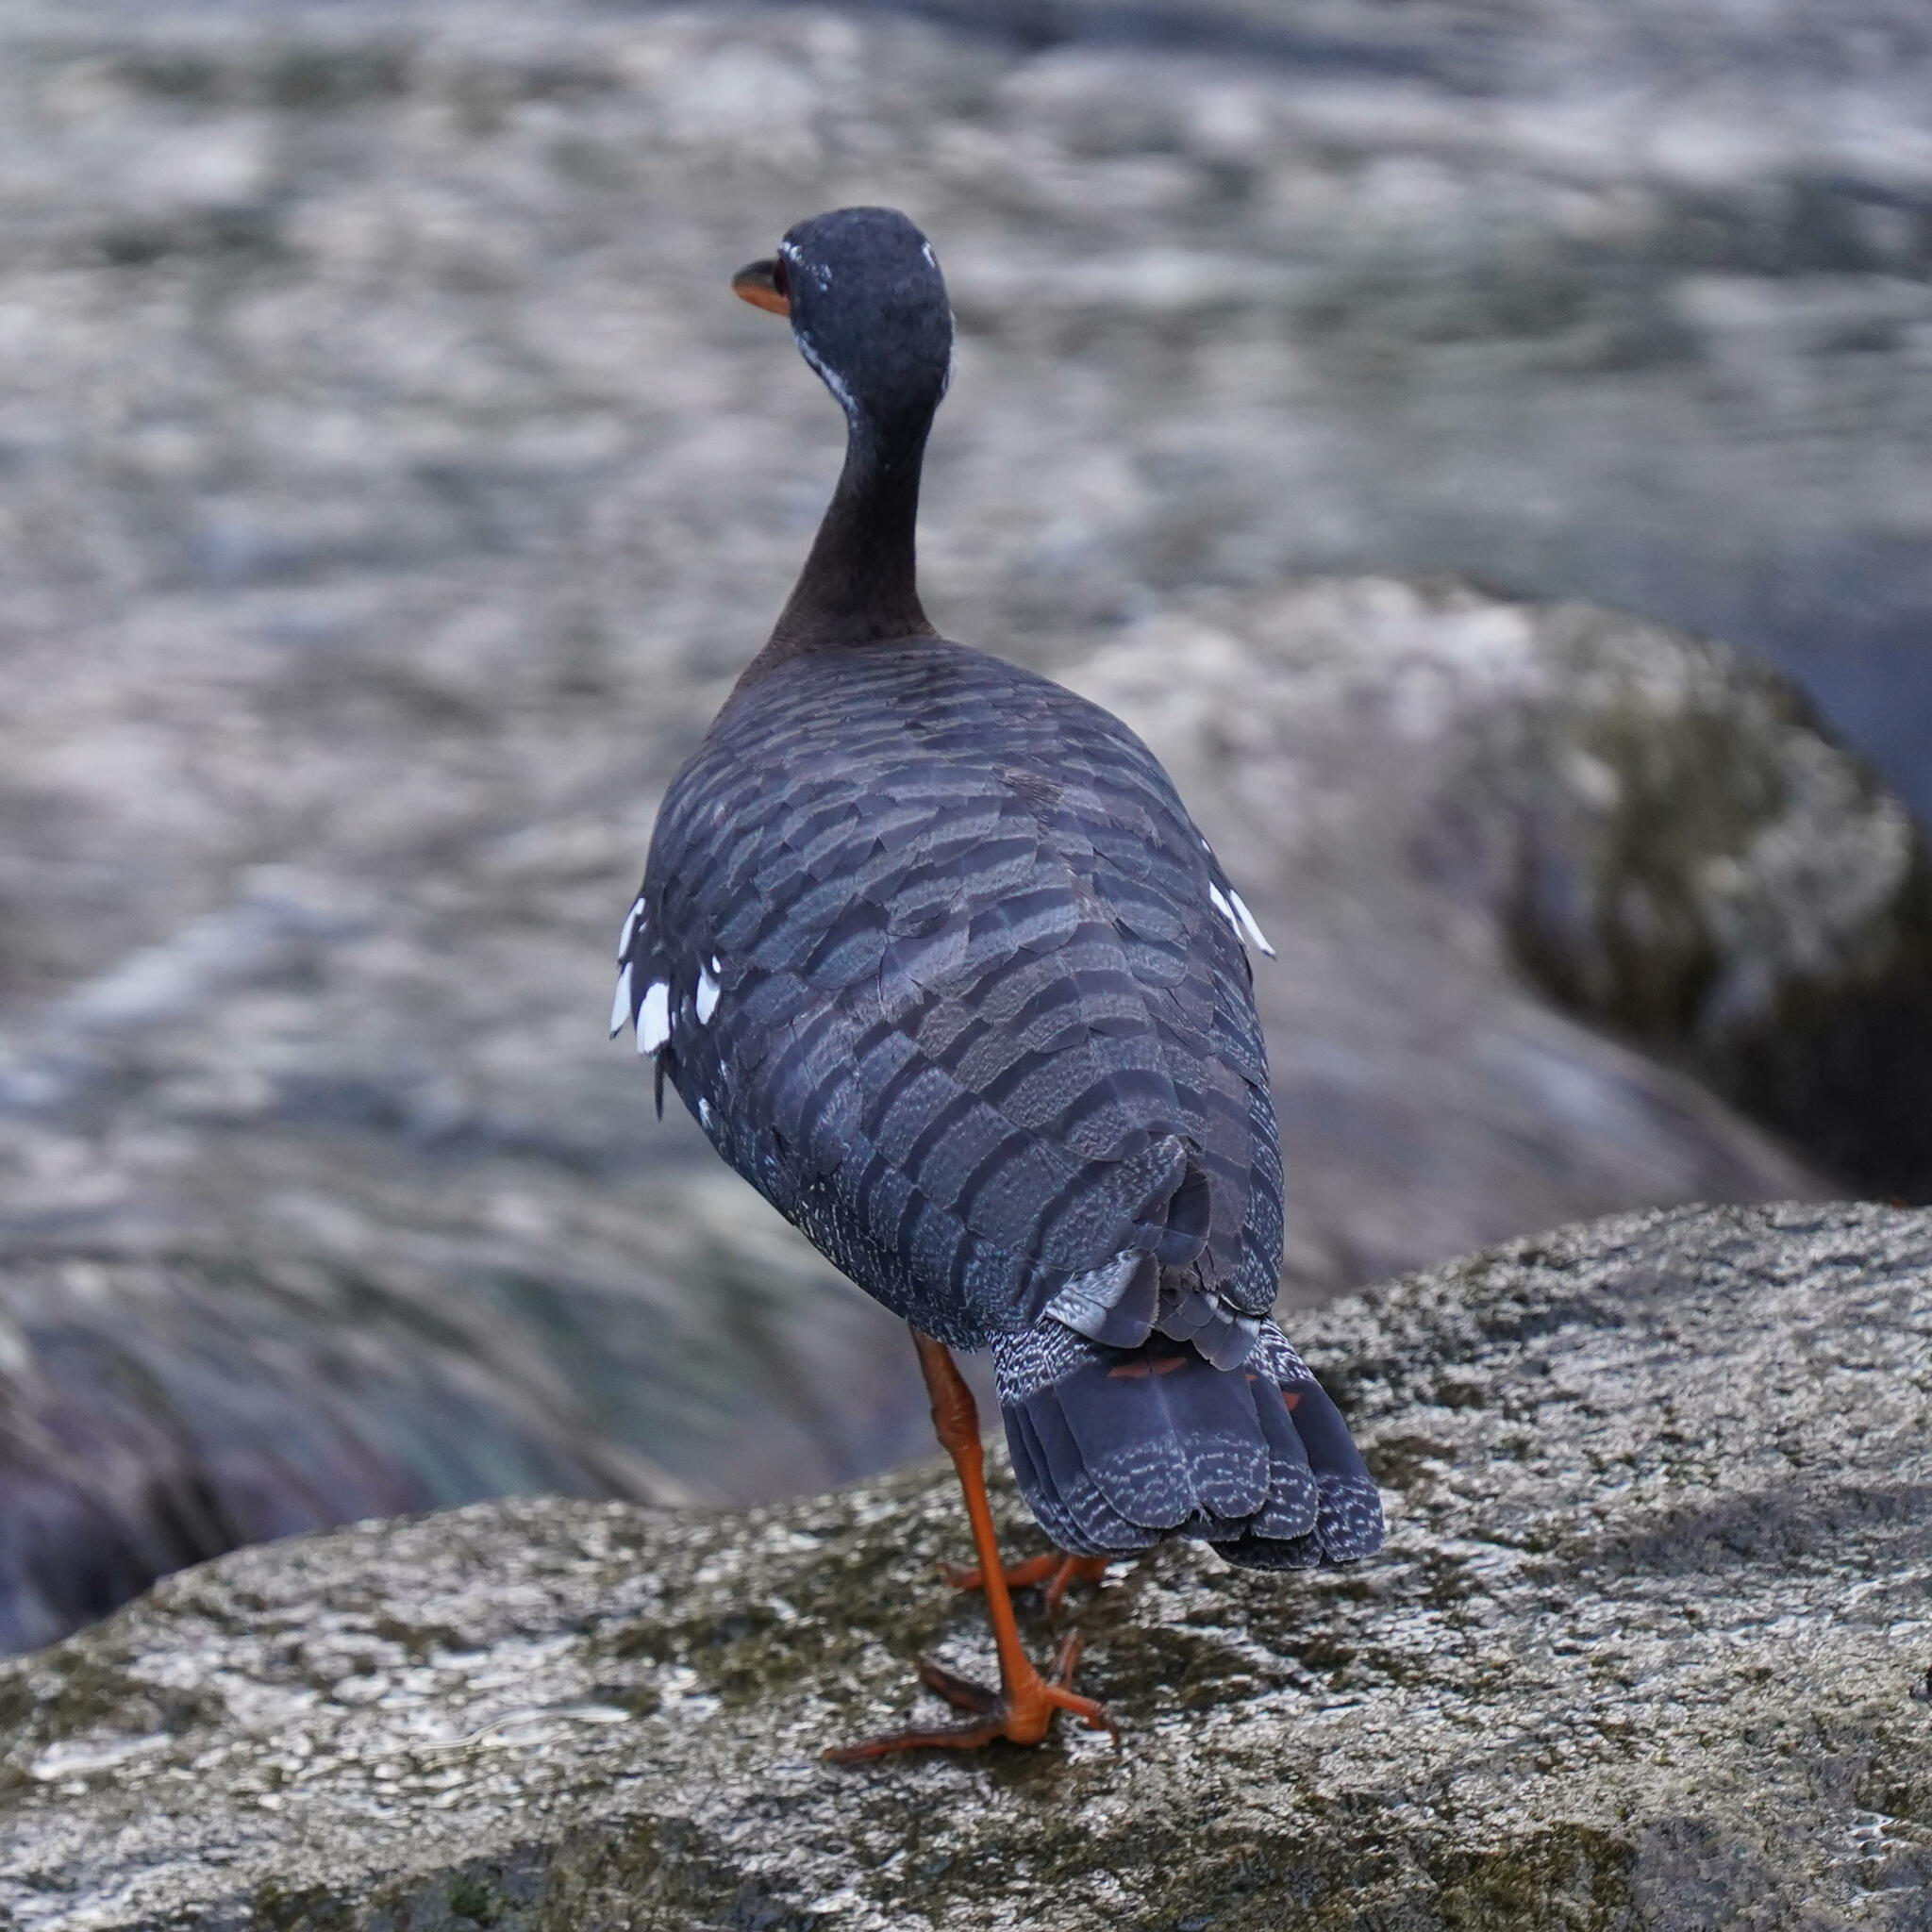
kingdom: Animalia
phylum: Chordata
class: Aves
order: Eurypygiformes
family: Eurypygidae
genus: Eurypyga
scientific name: Eurypyga helias
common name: Sunbittern
